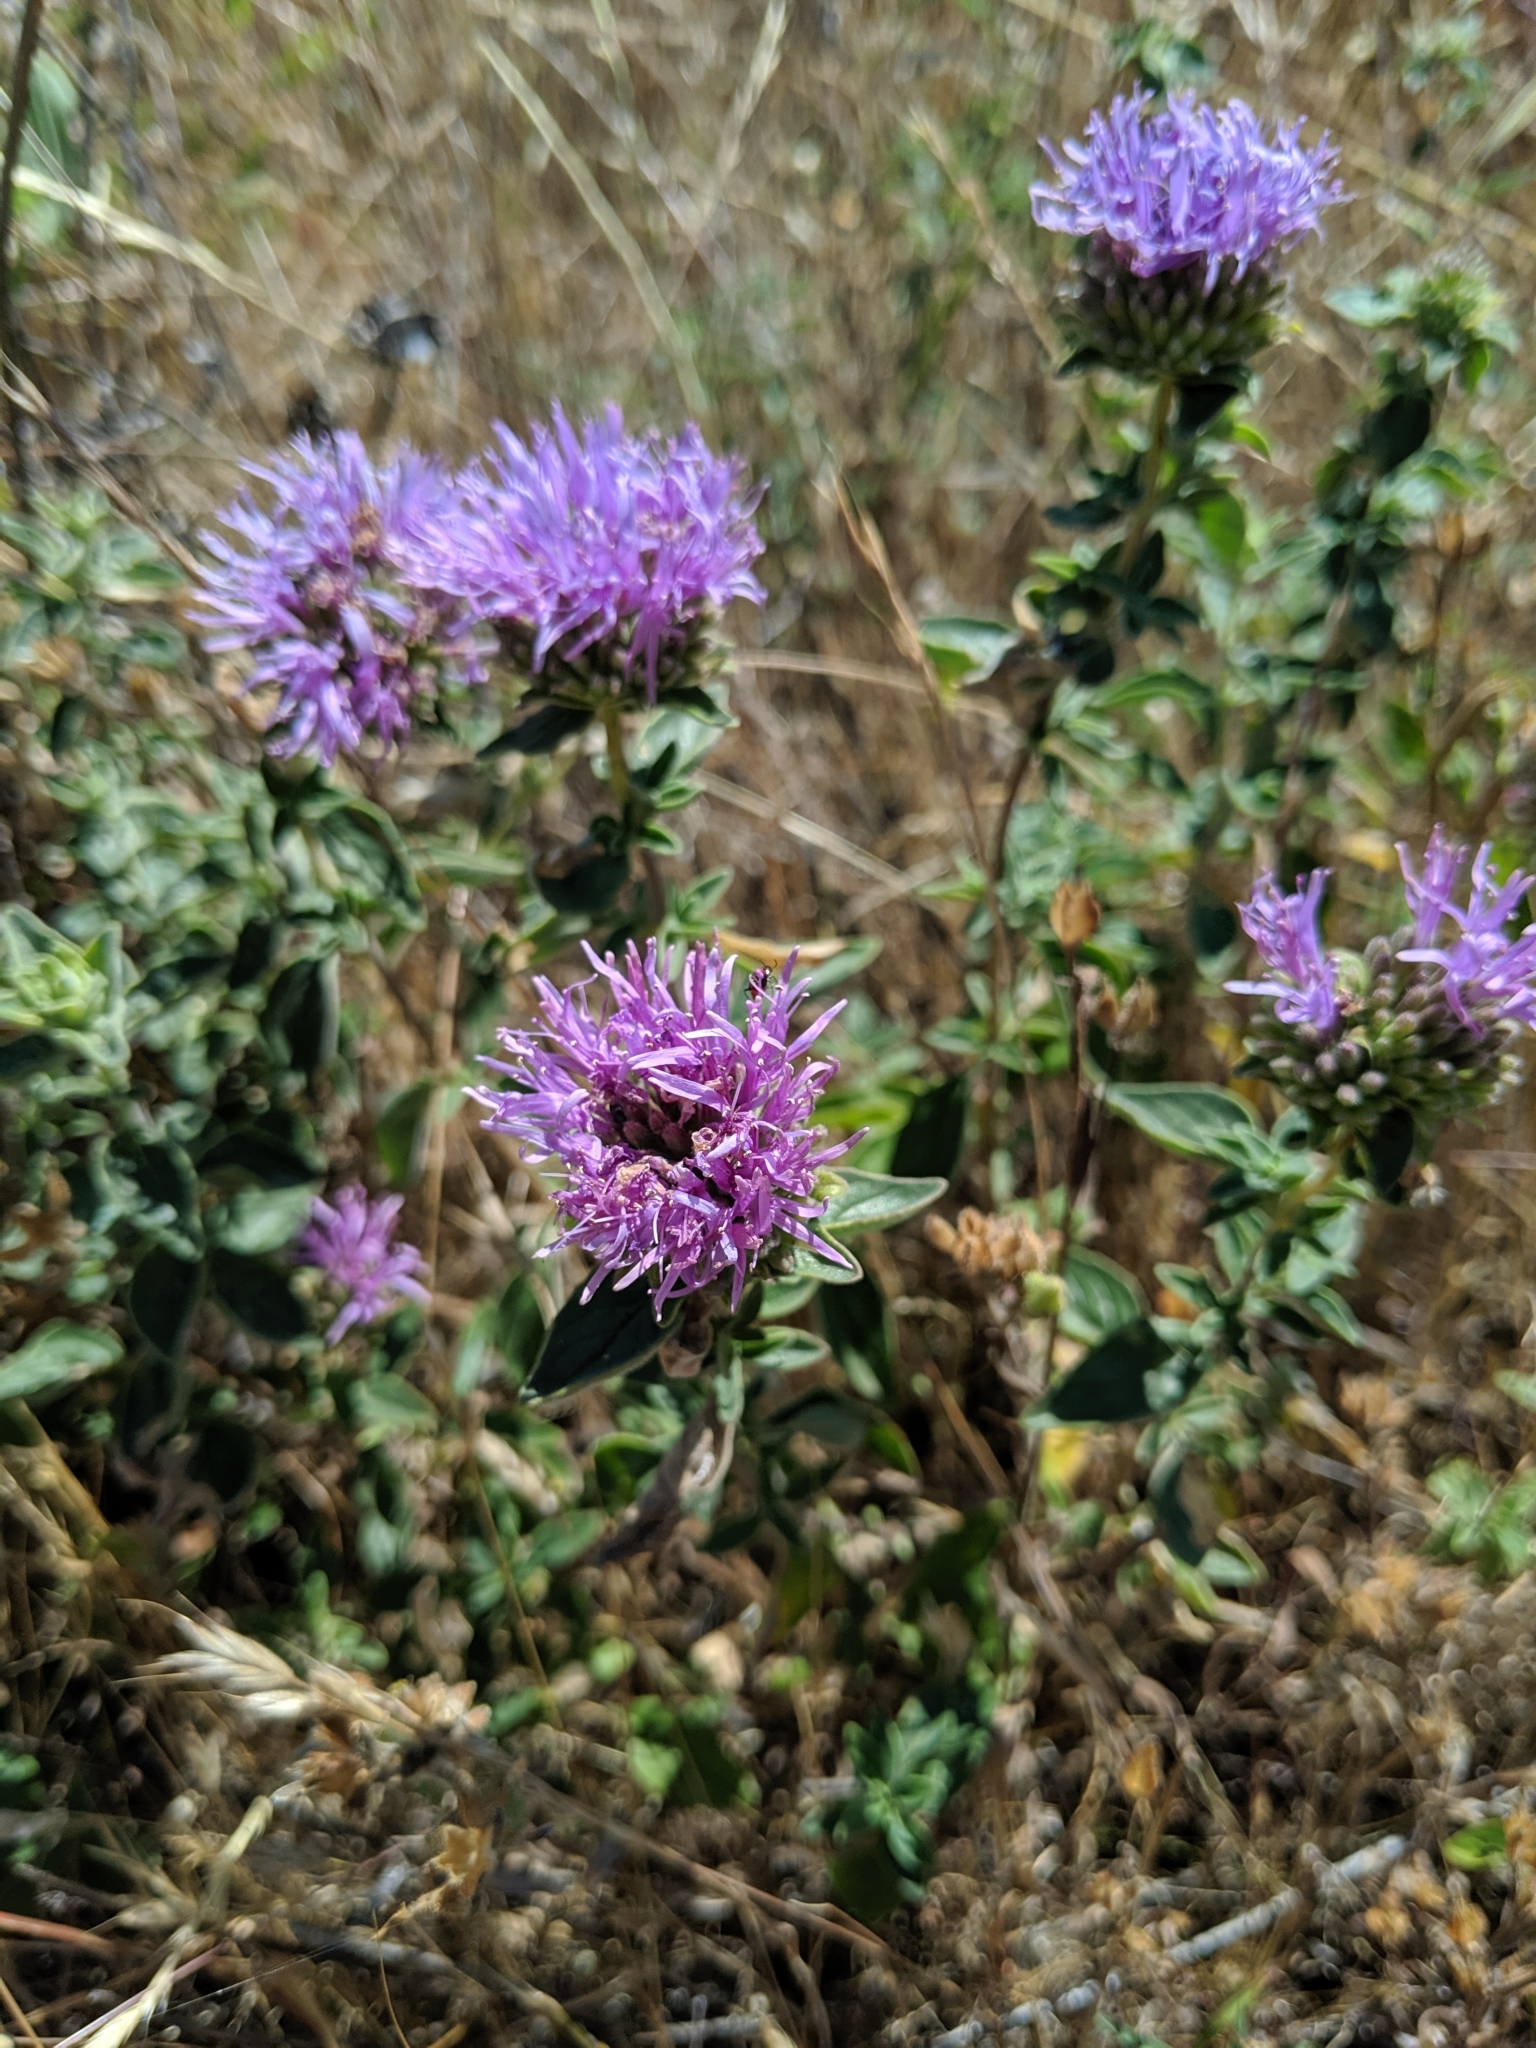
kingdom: Plantae
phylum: Tracheophyta
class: Magnoliopsida
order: Lamiales
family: Lamiaceae
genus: Monardella
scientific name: Monardella odoratissima
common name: Pacific monardella
